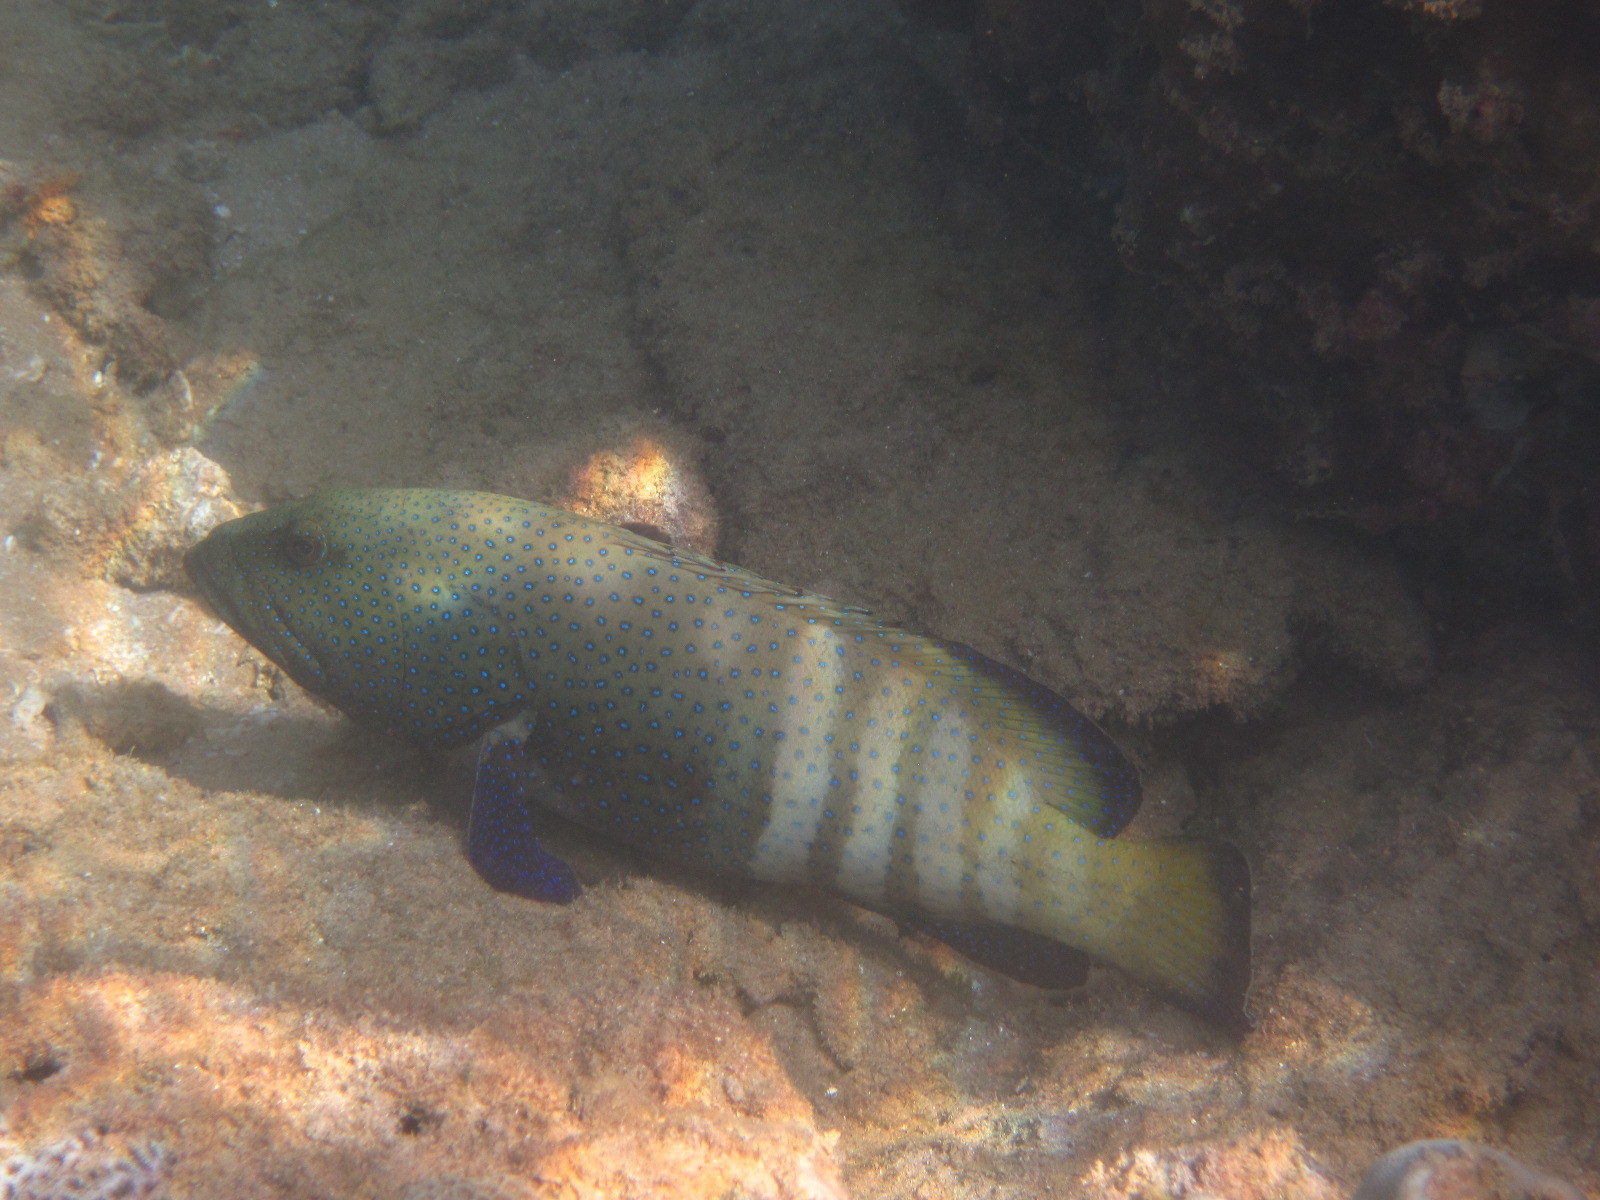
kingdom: Animalia
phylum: Chordata
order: Perciformes
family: Serranidae
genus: Cephalopholis
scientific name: Cephalopholis argus
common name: Peacock grouper
